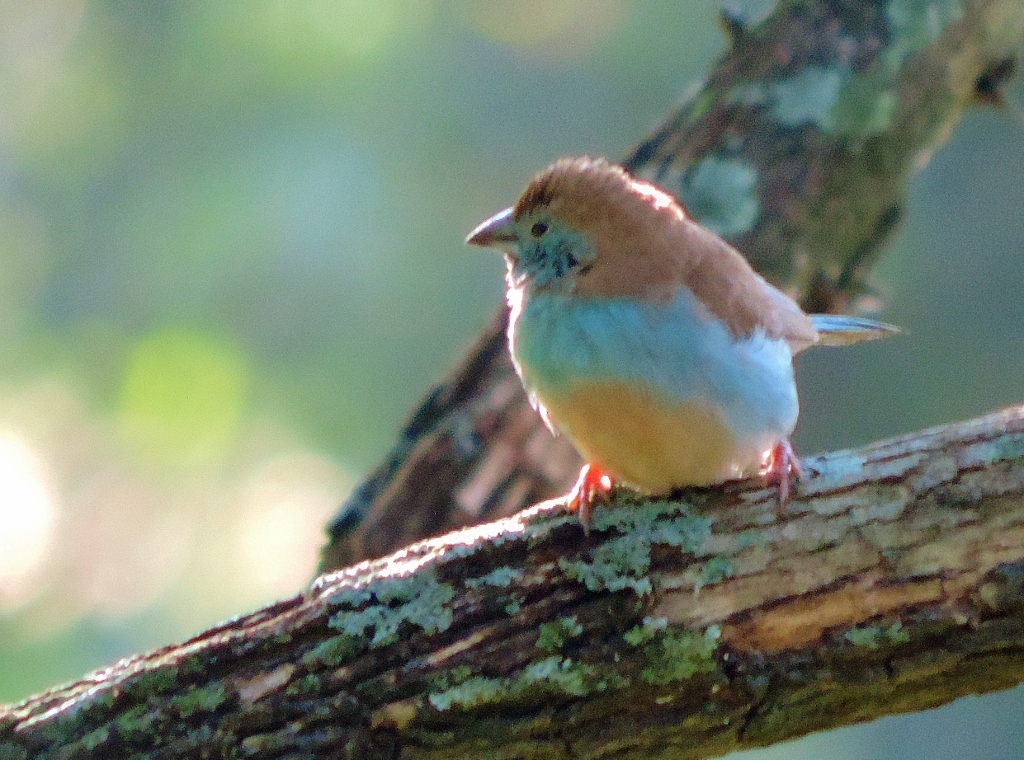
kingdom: Animalia
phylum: Chordata
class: Aves
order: Passeriformes
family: Estrildidae
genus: Uraeginthus
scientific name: Uraeginthus angolensis
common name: Blue waxbill
